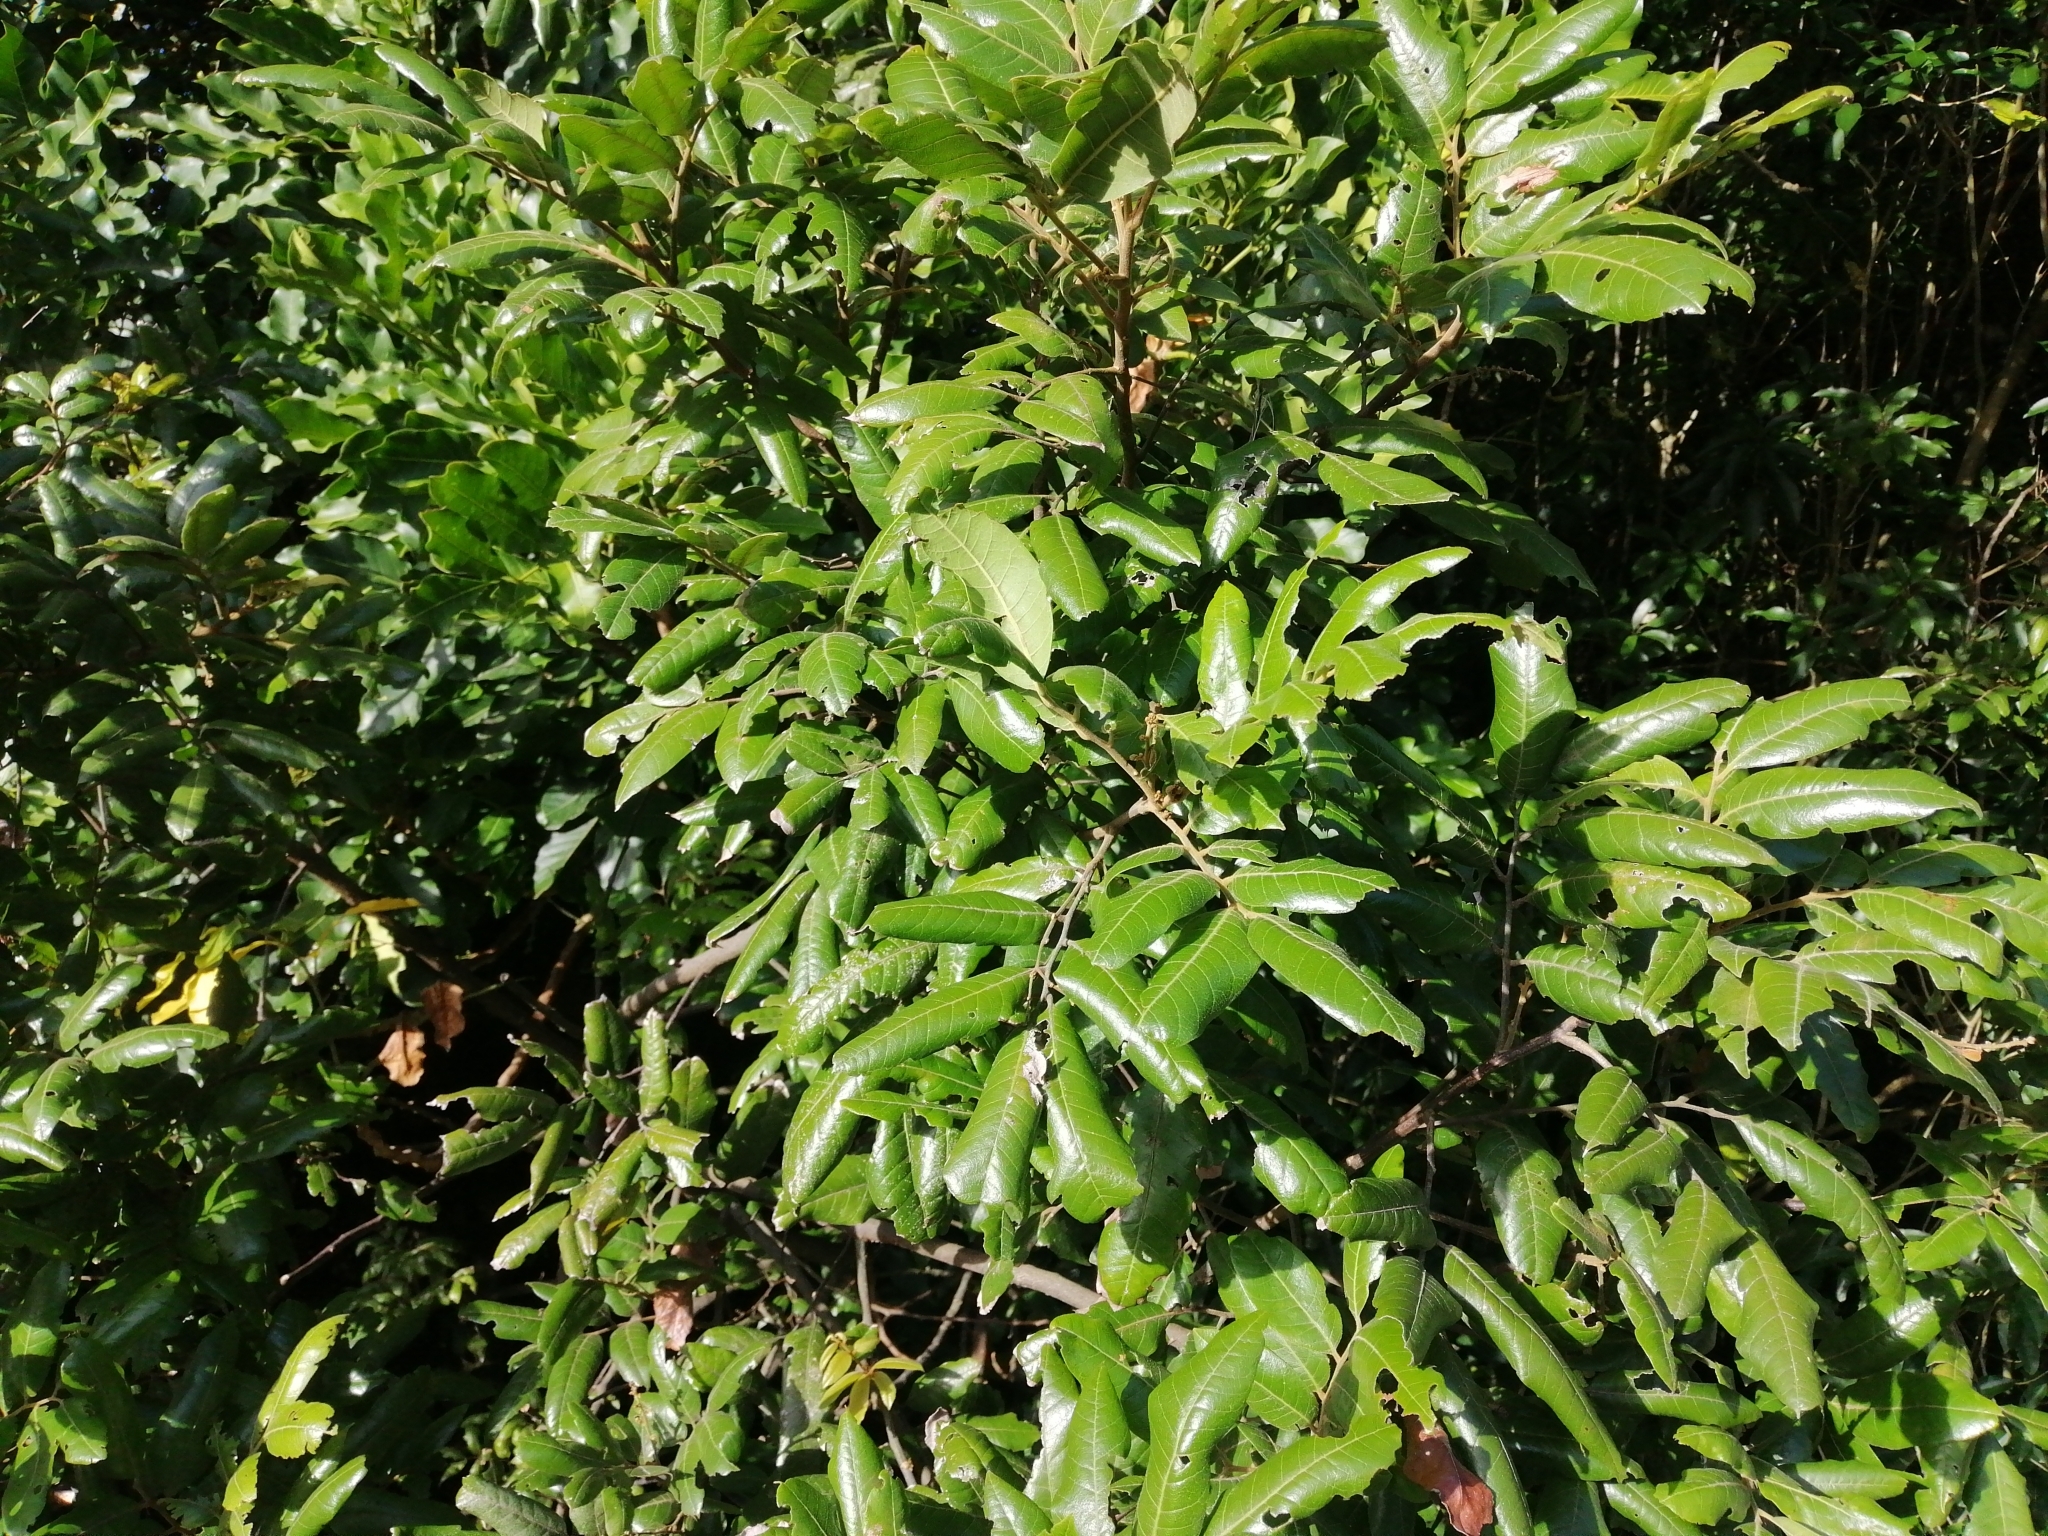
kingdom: Plantae
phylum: Tracheophyta
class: Magnoliopsida
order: Sapindales
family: Sapindaceae
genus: Alectryon
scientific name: Alectryon excelsus
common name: Three kings titoki
